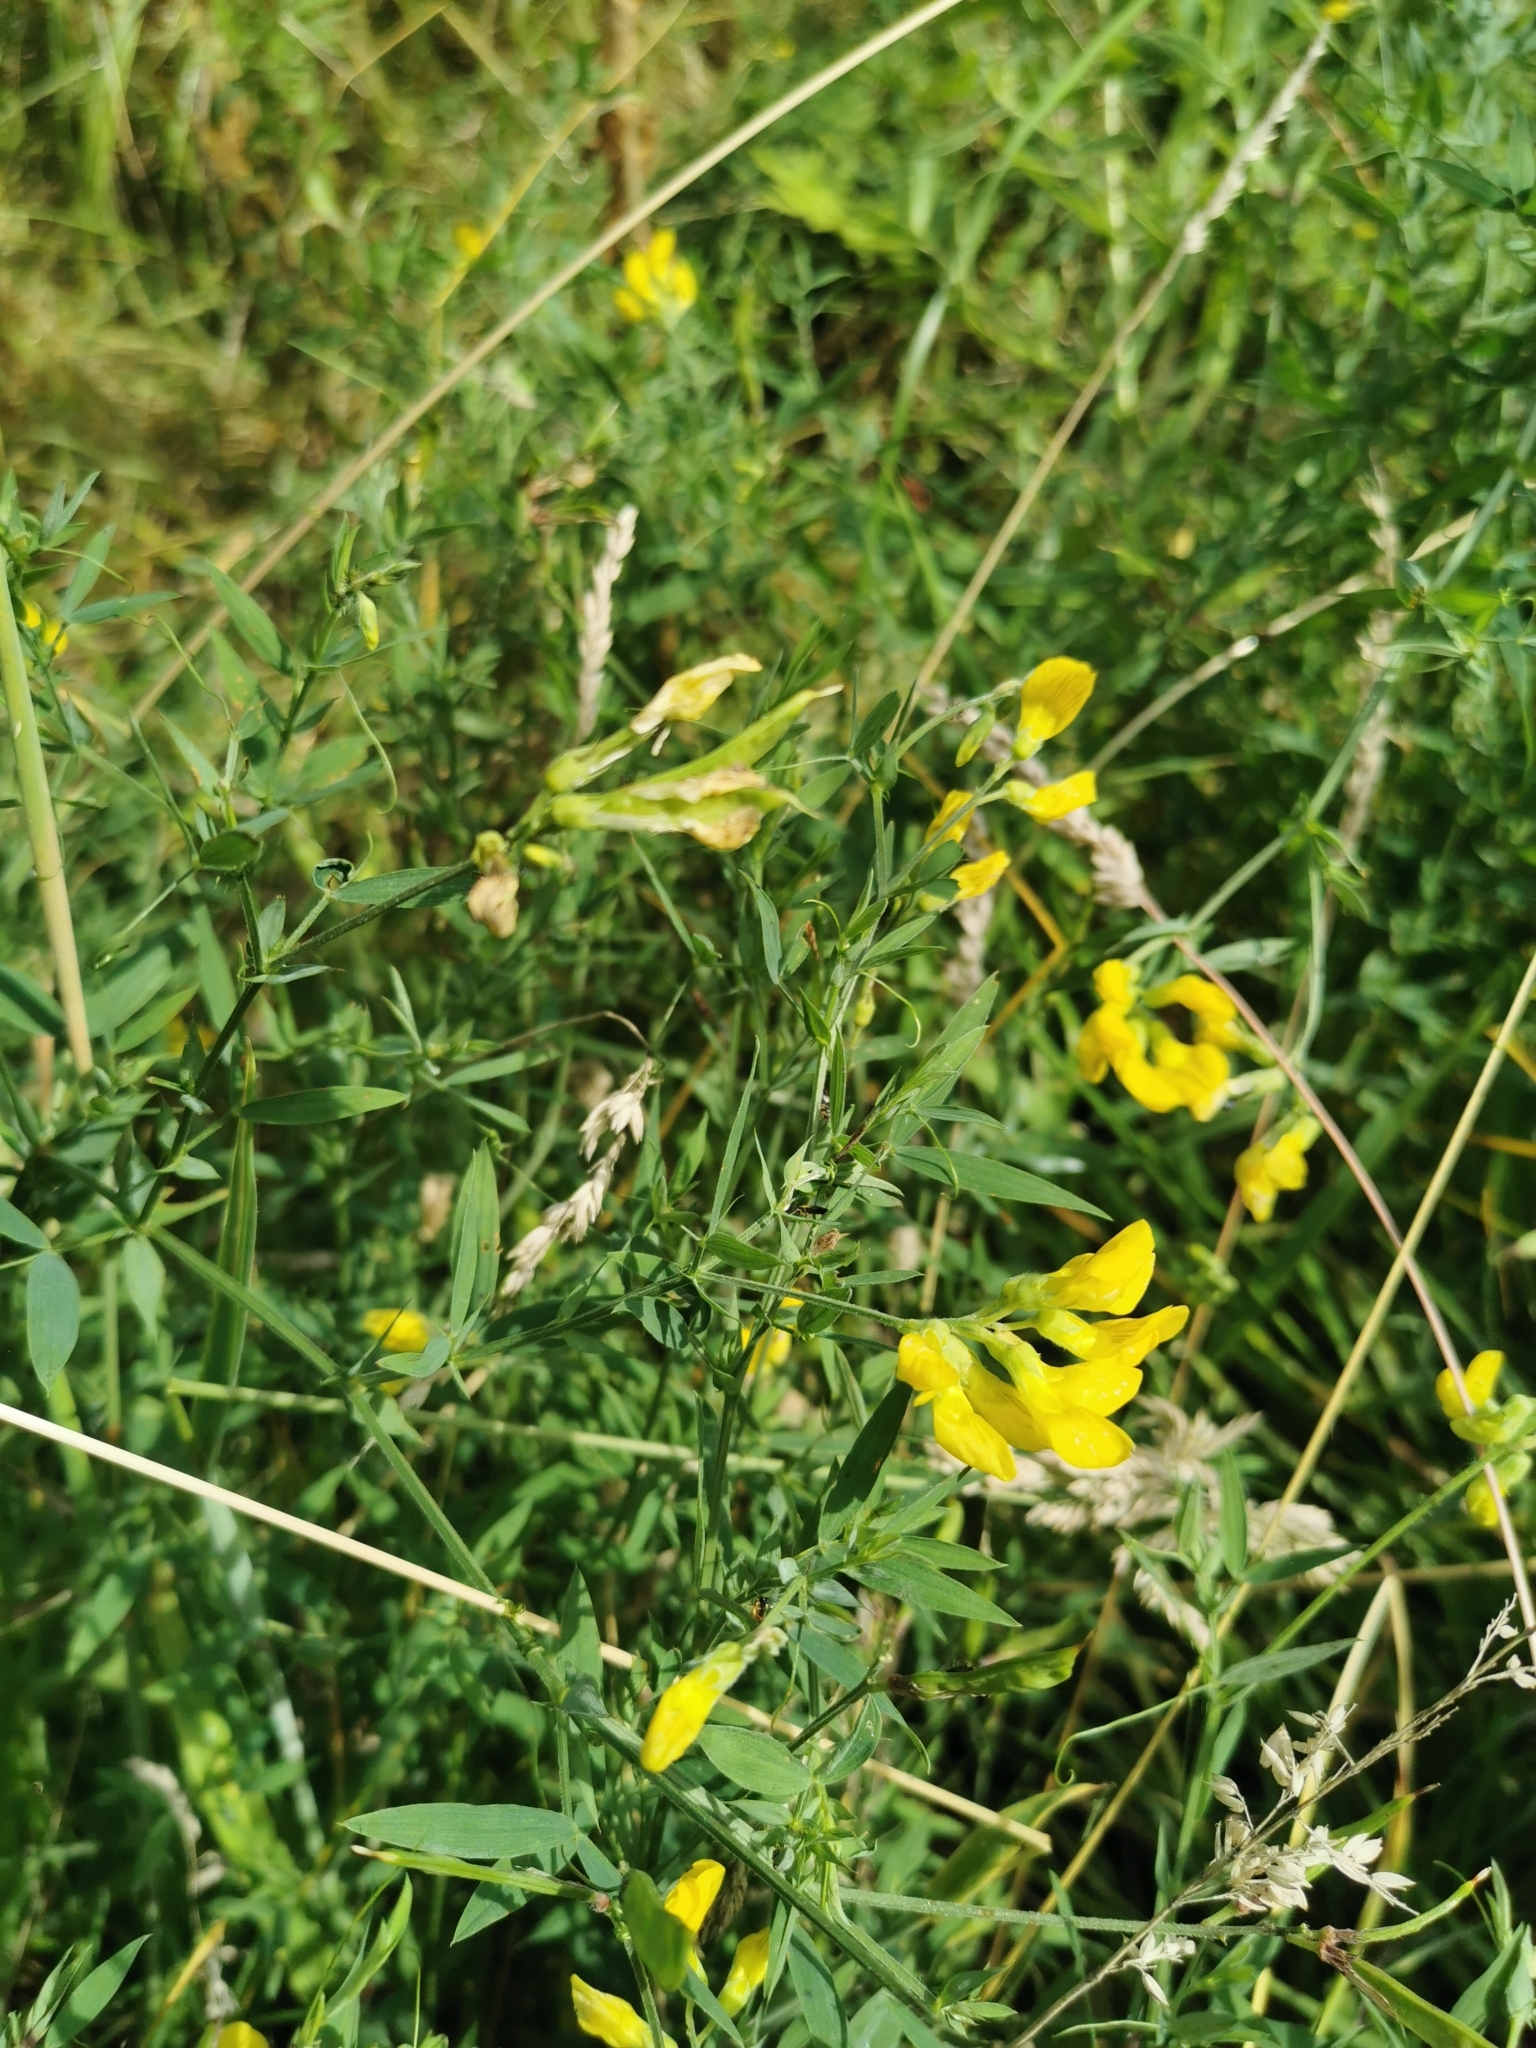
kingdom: Plantae
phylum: Tracheophyta
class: Magnoliopsida
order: Fabales
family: Fabaceae
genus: Lathyrus
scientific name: Lathyrus pratensis
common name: Meadow vetchling
